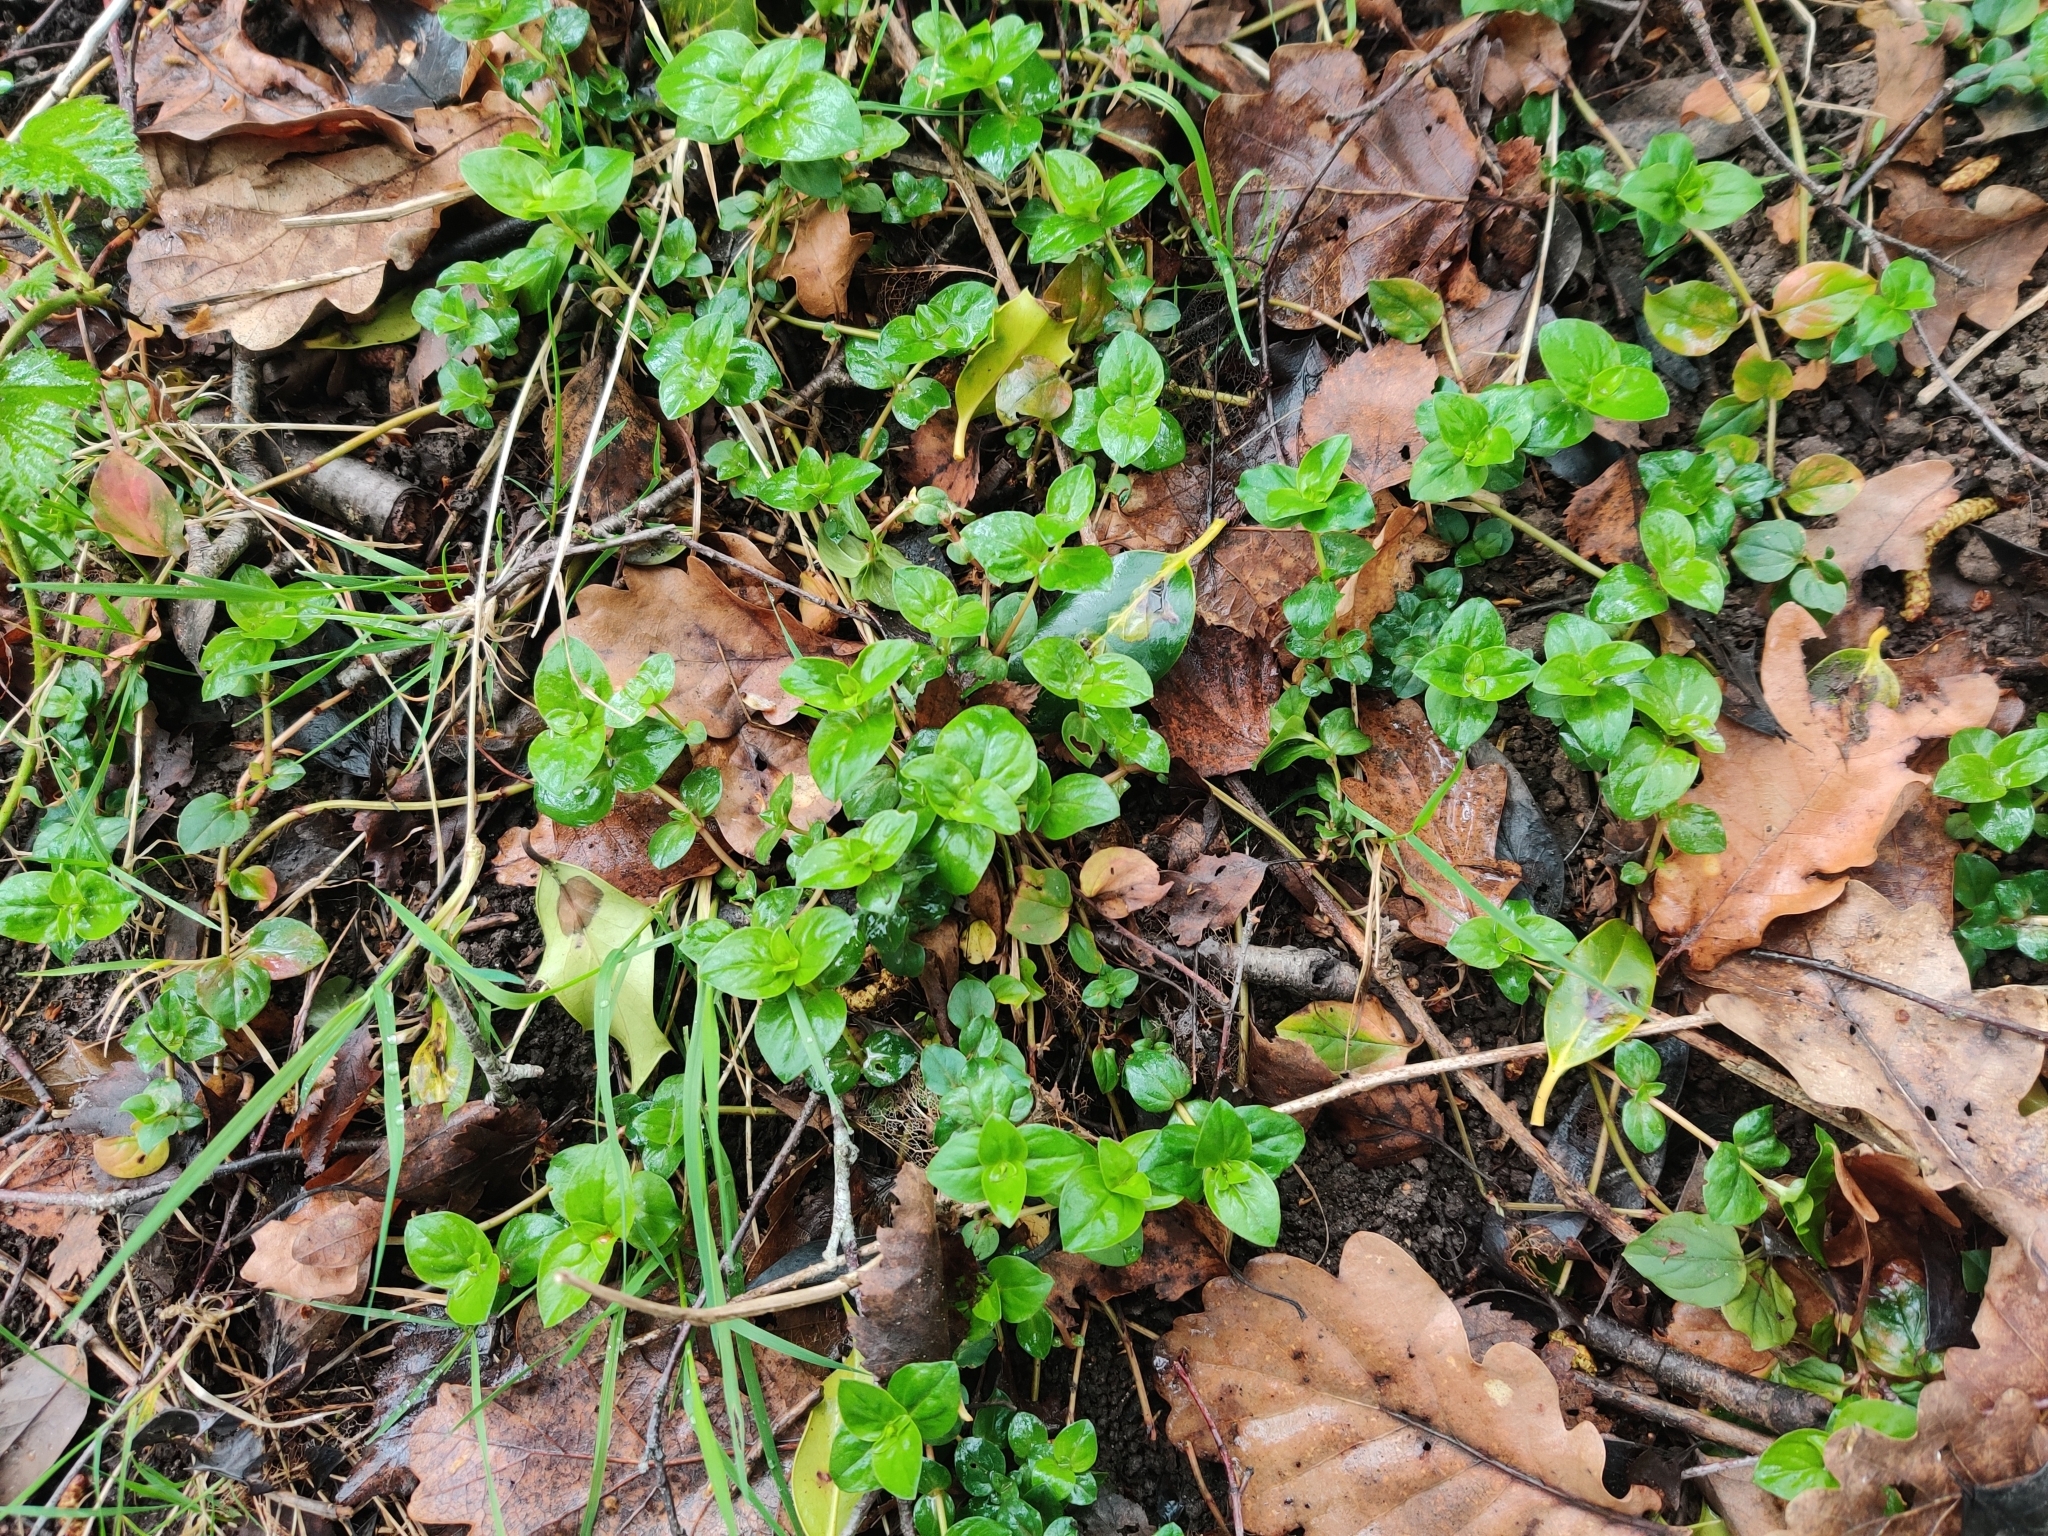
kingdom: Plantae
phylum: Tracheophyta
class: Magnoliopsida
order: Ericales
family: Primulaceae
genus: Lysimachia
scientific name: Lysimachia nemorum
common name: Yellow pimpernel
